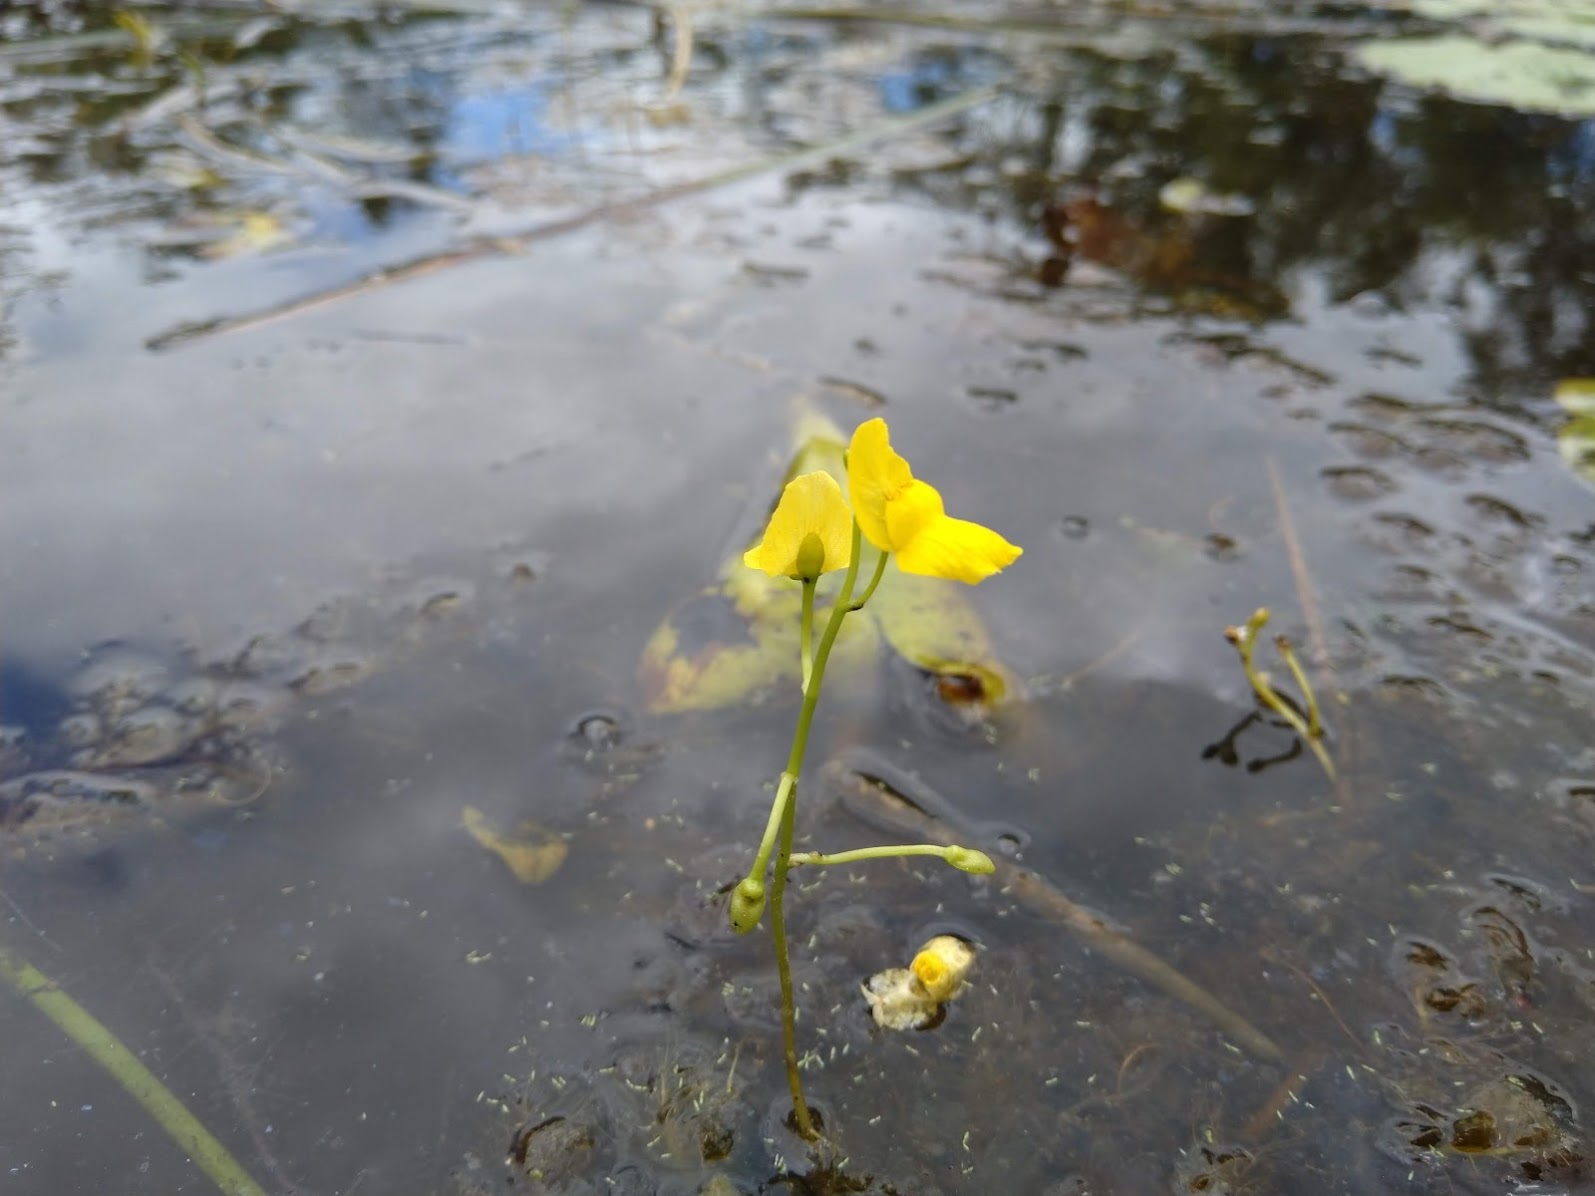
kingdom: Plantae
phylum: Tracheophyta
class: Magnoliopsida
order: Lamiales
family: Lentibulariaceae
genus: Utricularia
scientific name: Utricularia aurea
